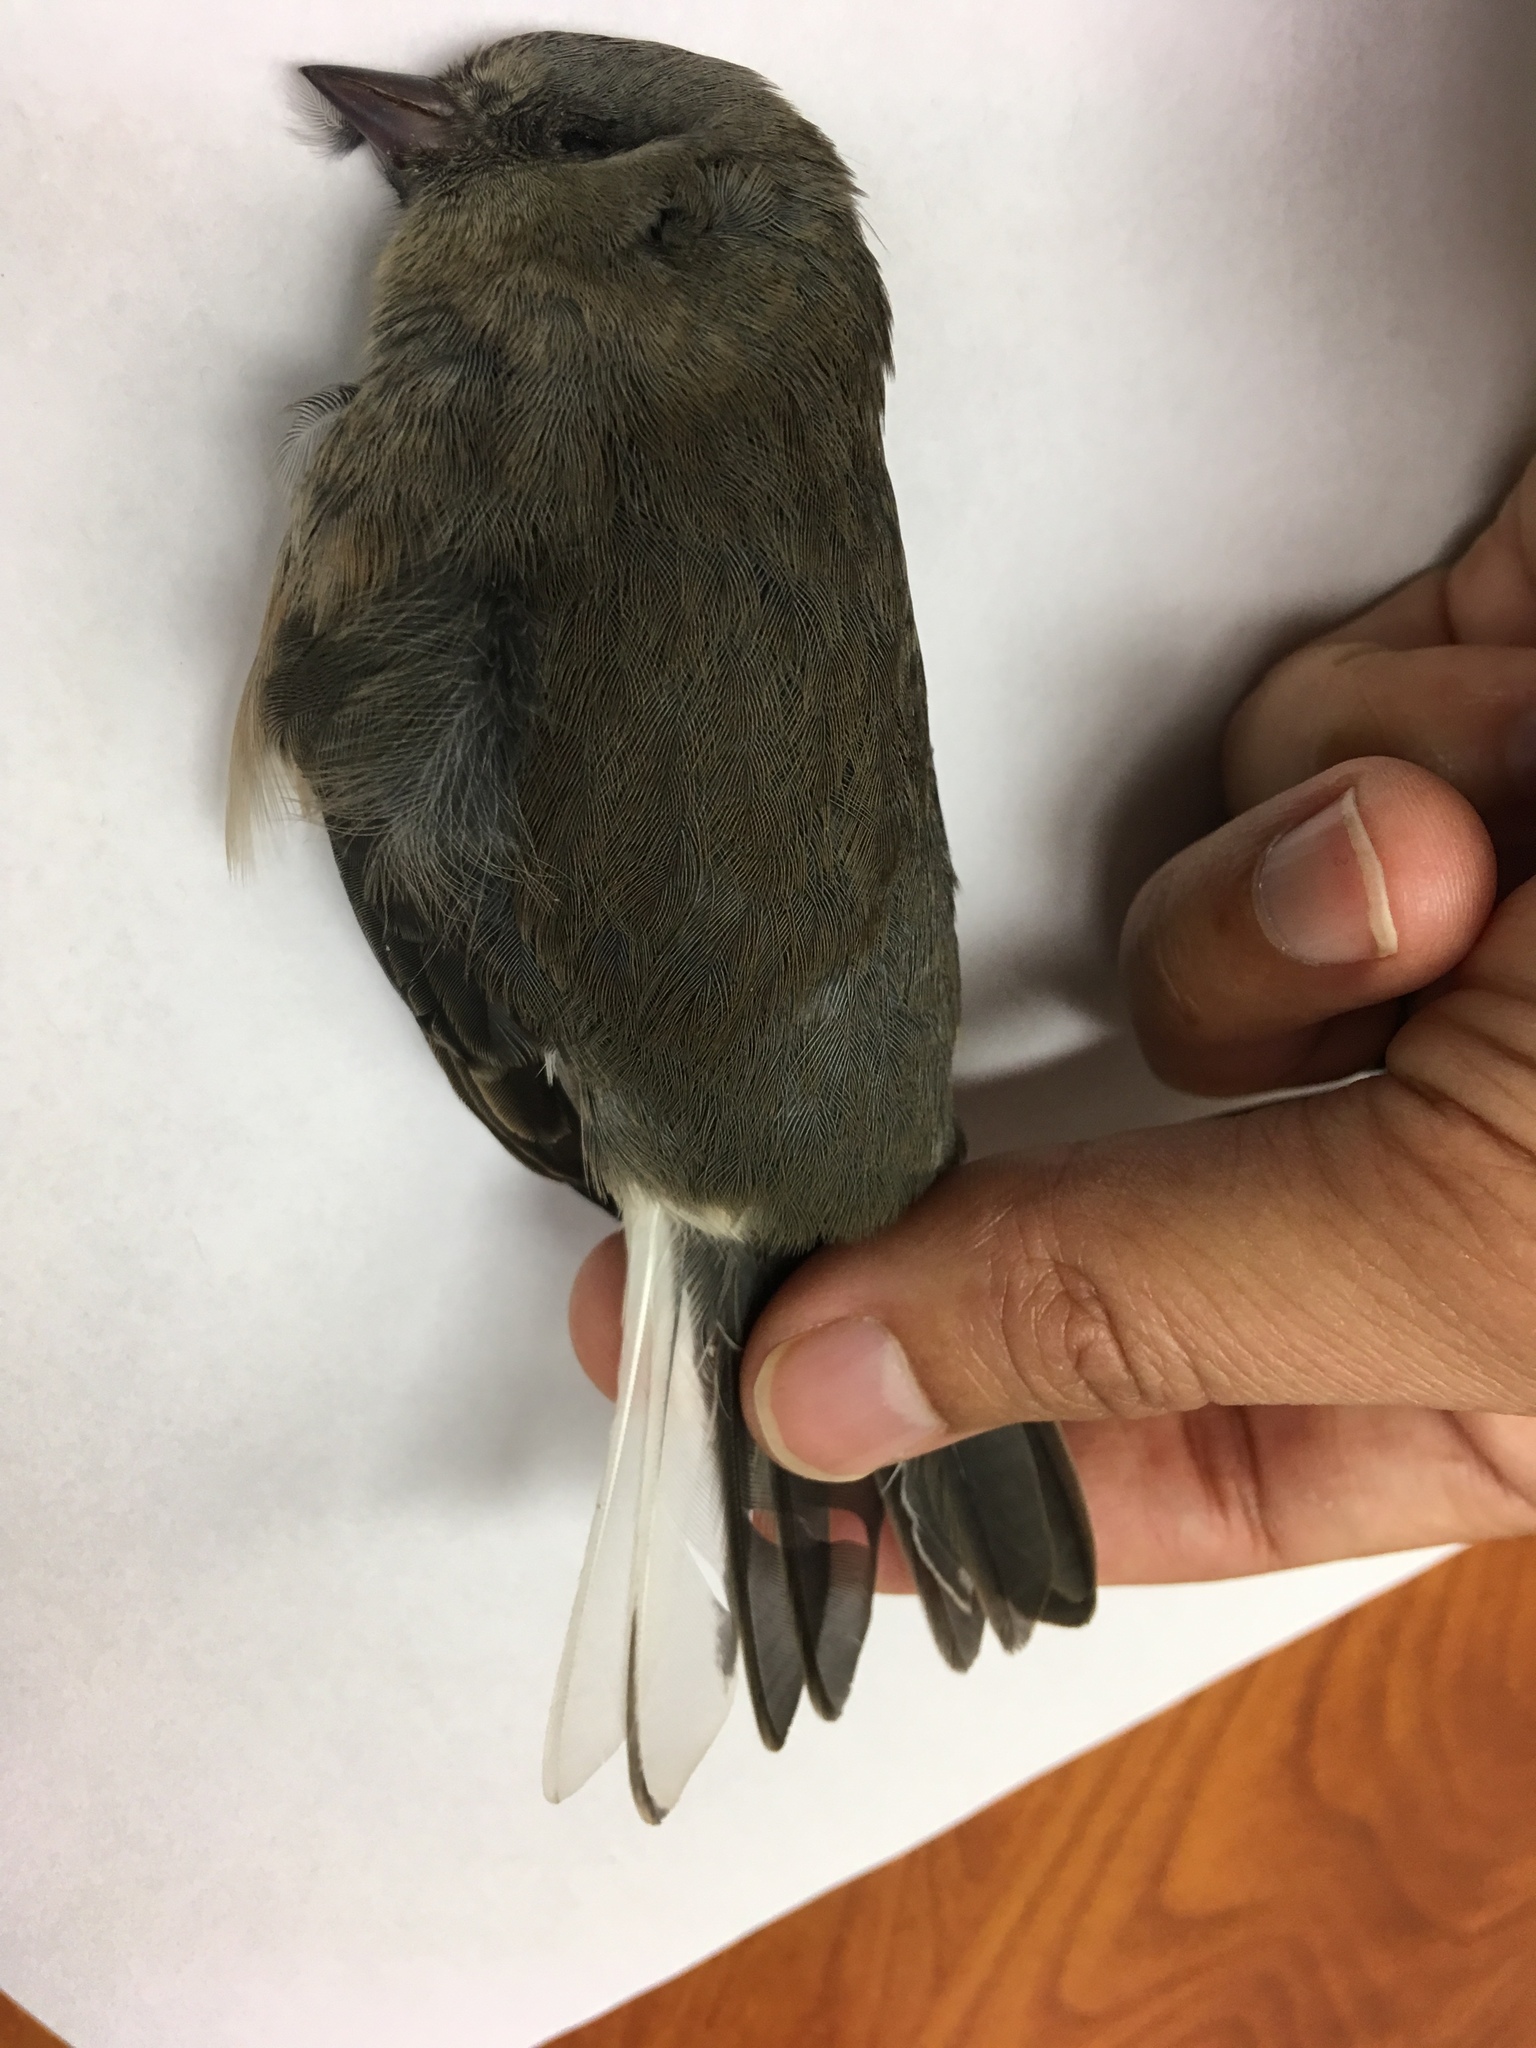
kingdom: Animalia
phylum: Chordata
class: Aves
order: Passeriformes
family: Passerellidae
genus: Junco
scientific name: Junco hyemalis
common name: Dark-eyed junco
